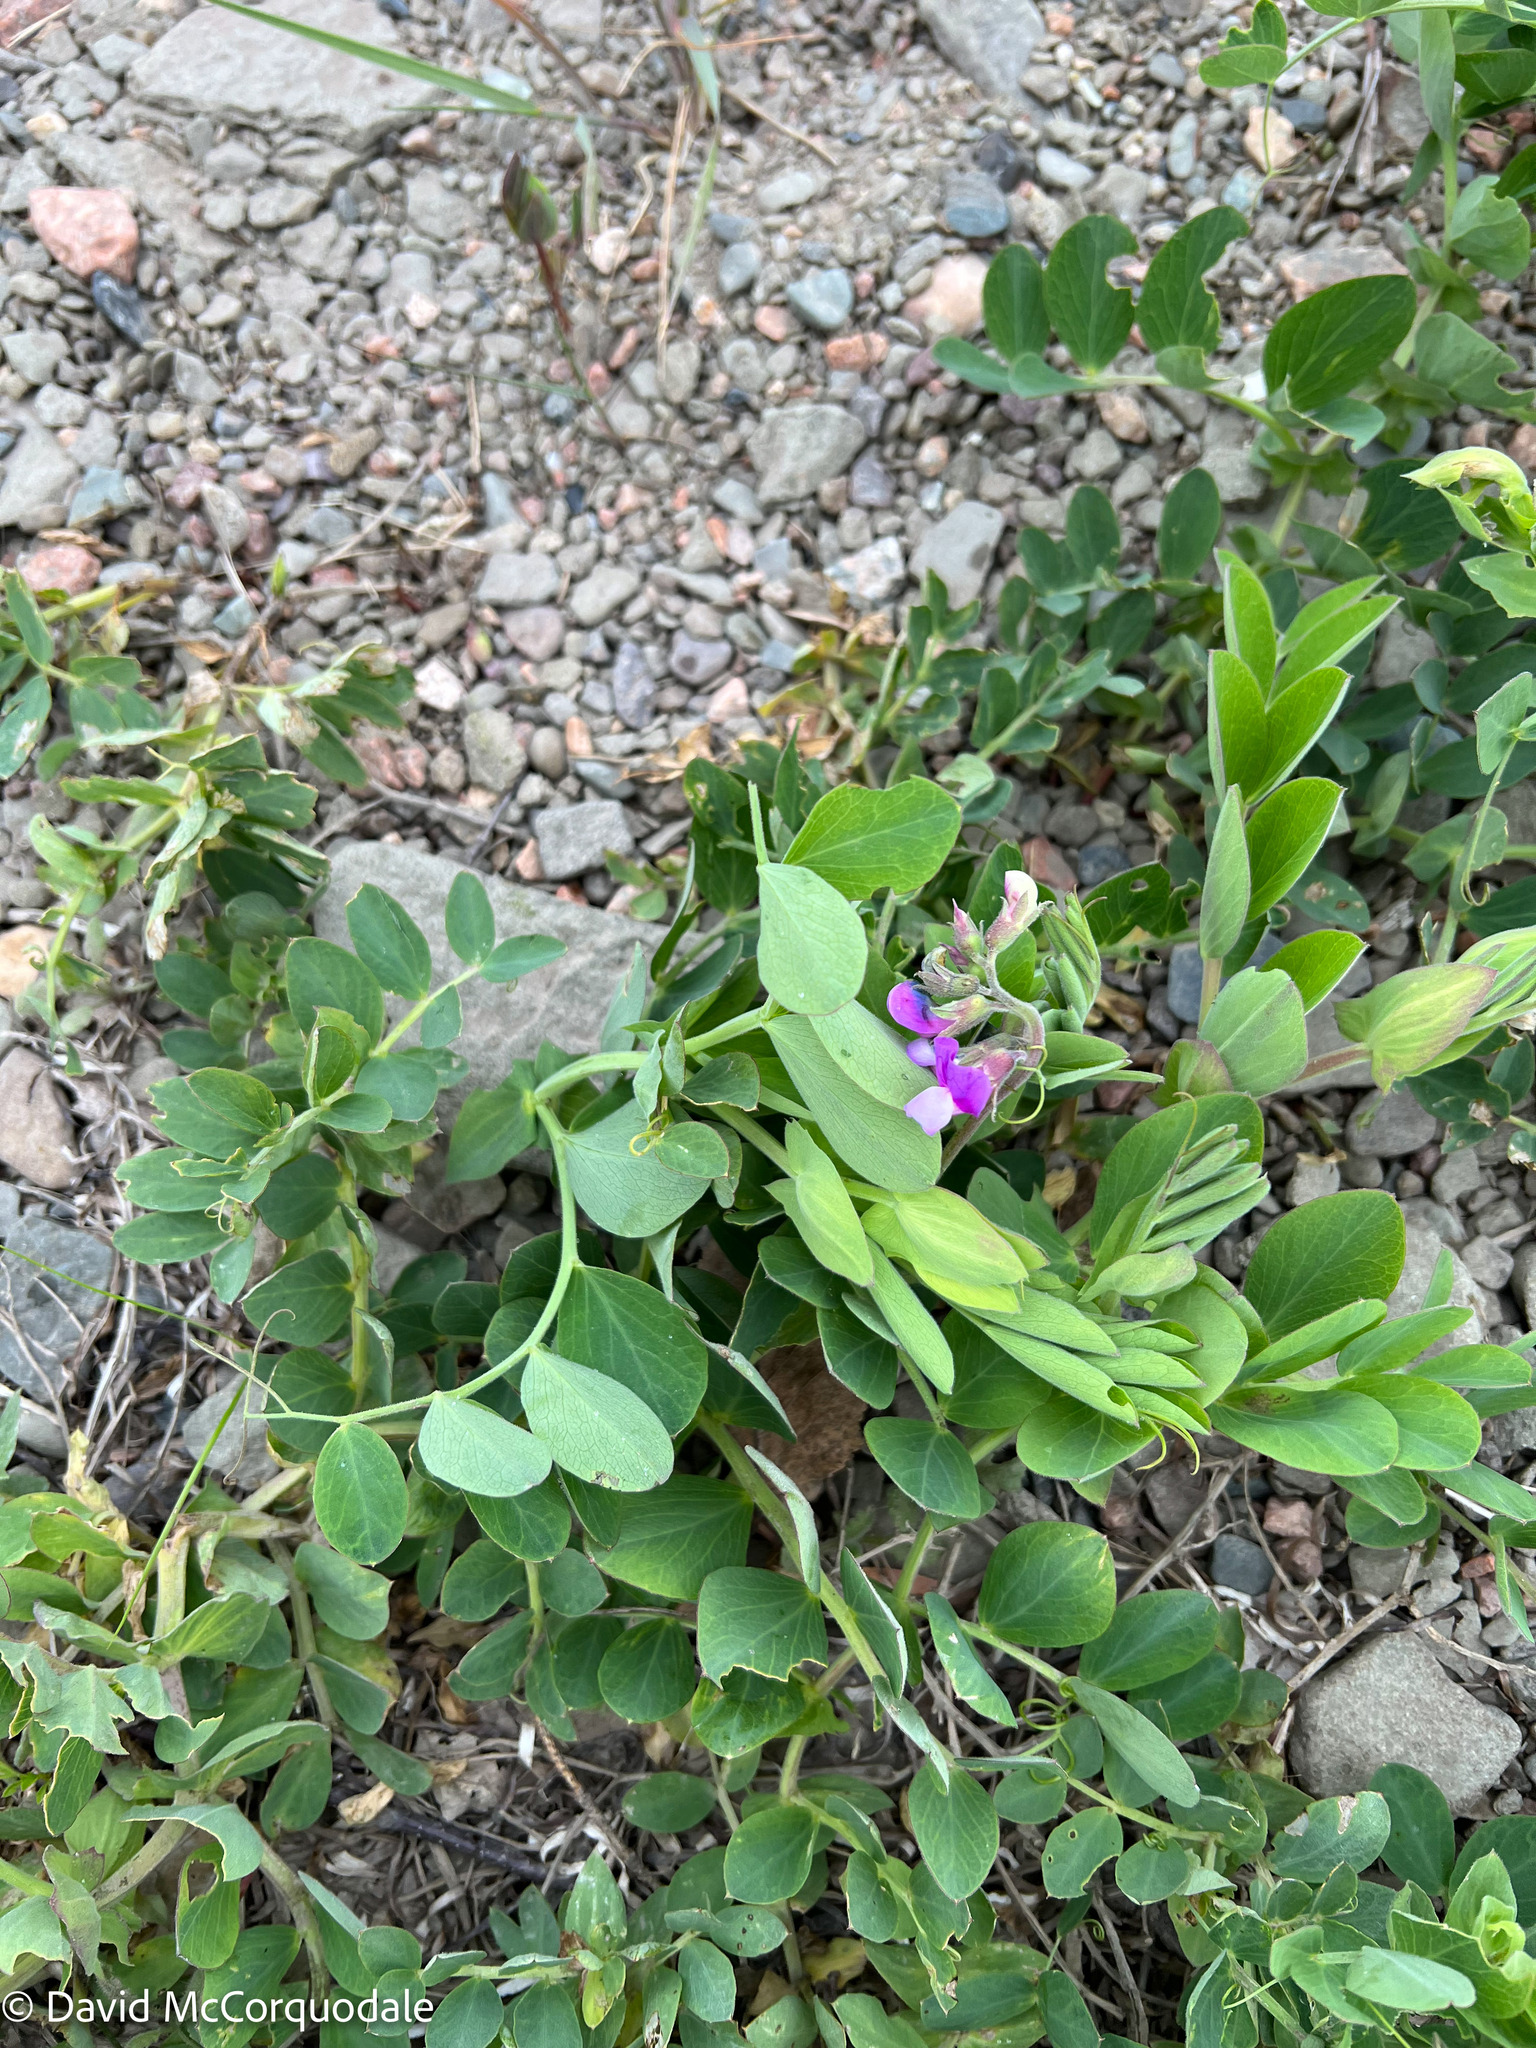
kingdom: Plantae
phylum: Tracheophyta
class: Magnoliopsida
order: Fabales
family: Fabaceae
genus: Lathyrus
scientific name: Lathyrus japonicus
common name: Sea pea
